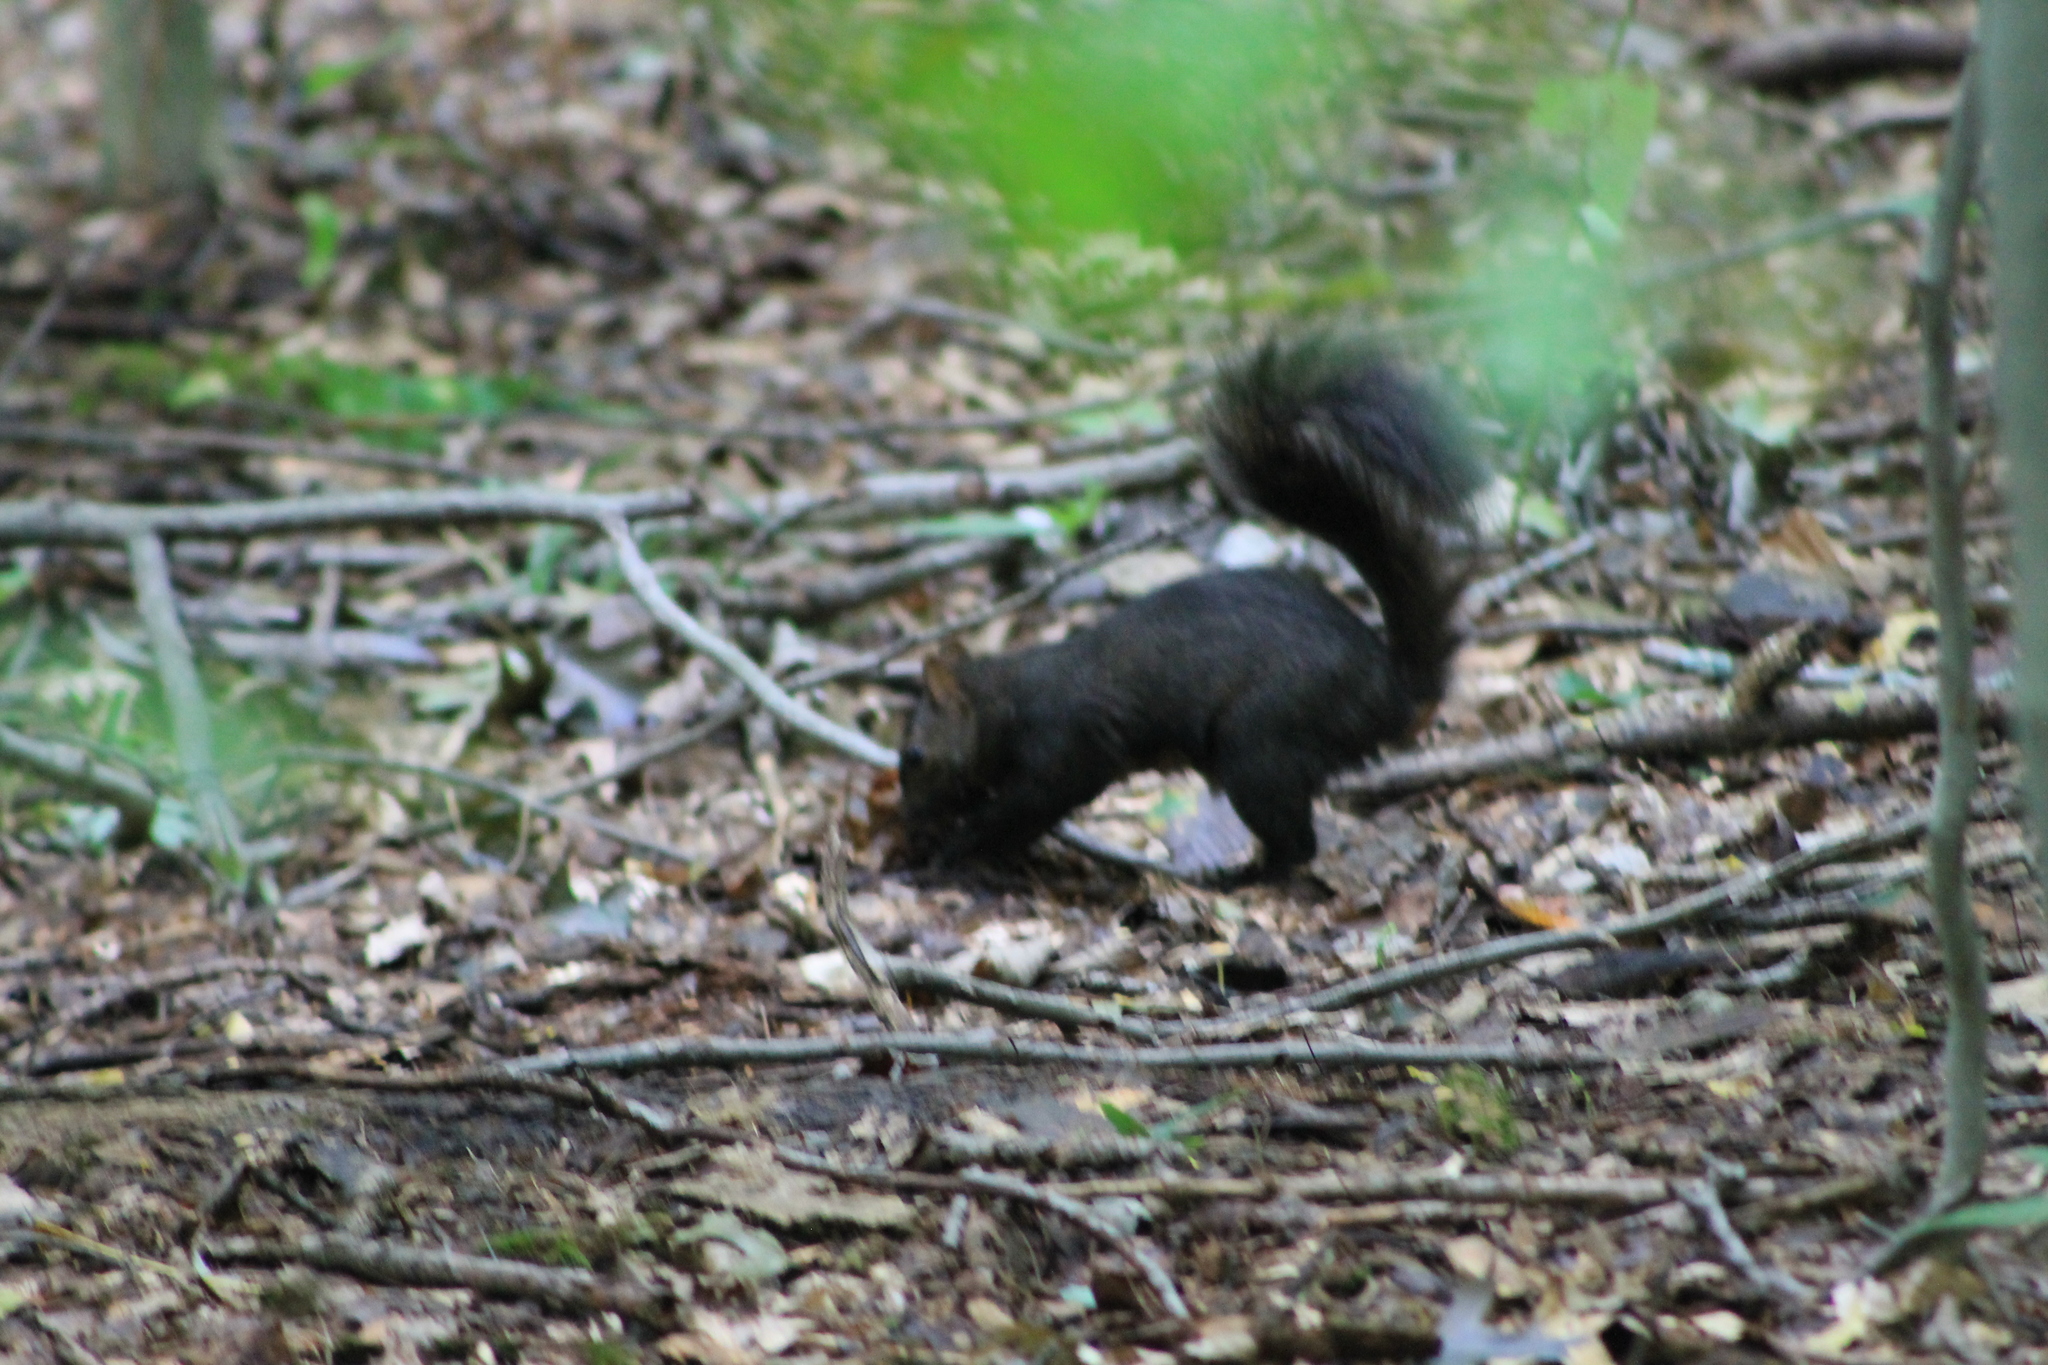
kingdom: Animalia
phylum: Chordata
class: Mammalia
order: Rodentia
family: Sciuridae
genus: Sciurus
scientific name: Sciurus carolinensis
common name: Eastern gray squirrel
